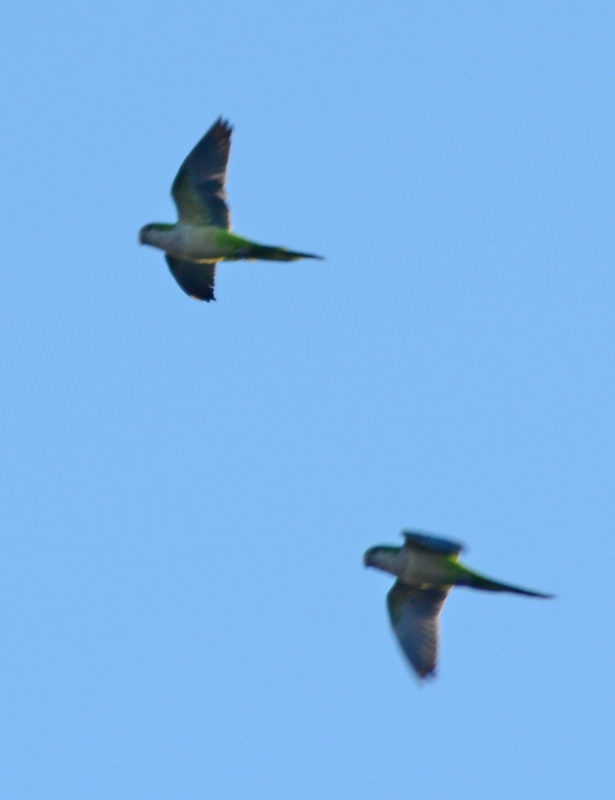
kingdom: Animalia
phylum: Chordata
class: Aves
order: Psittaciformes
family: Psittacidae
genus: Myiopsitta
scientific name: Myiopsitta monachus
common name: Monk parakeet
